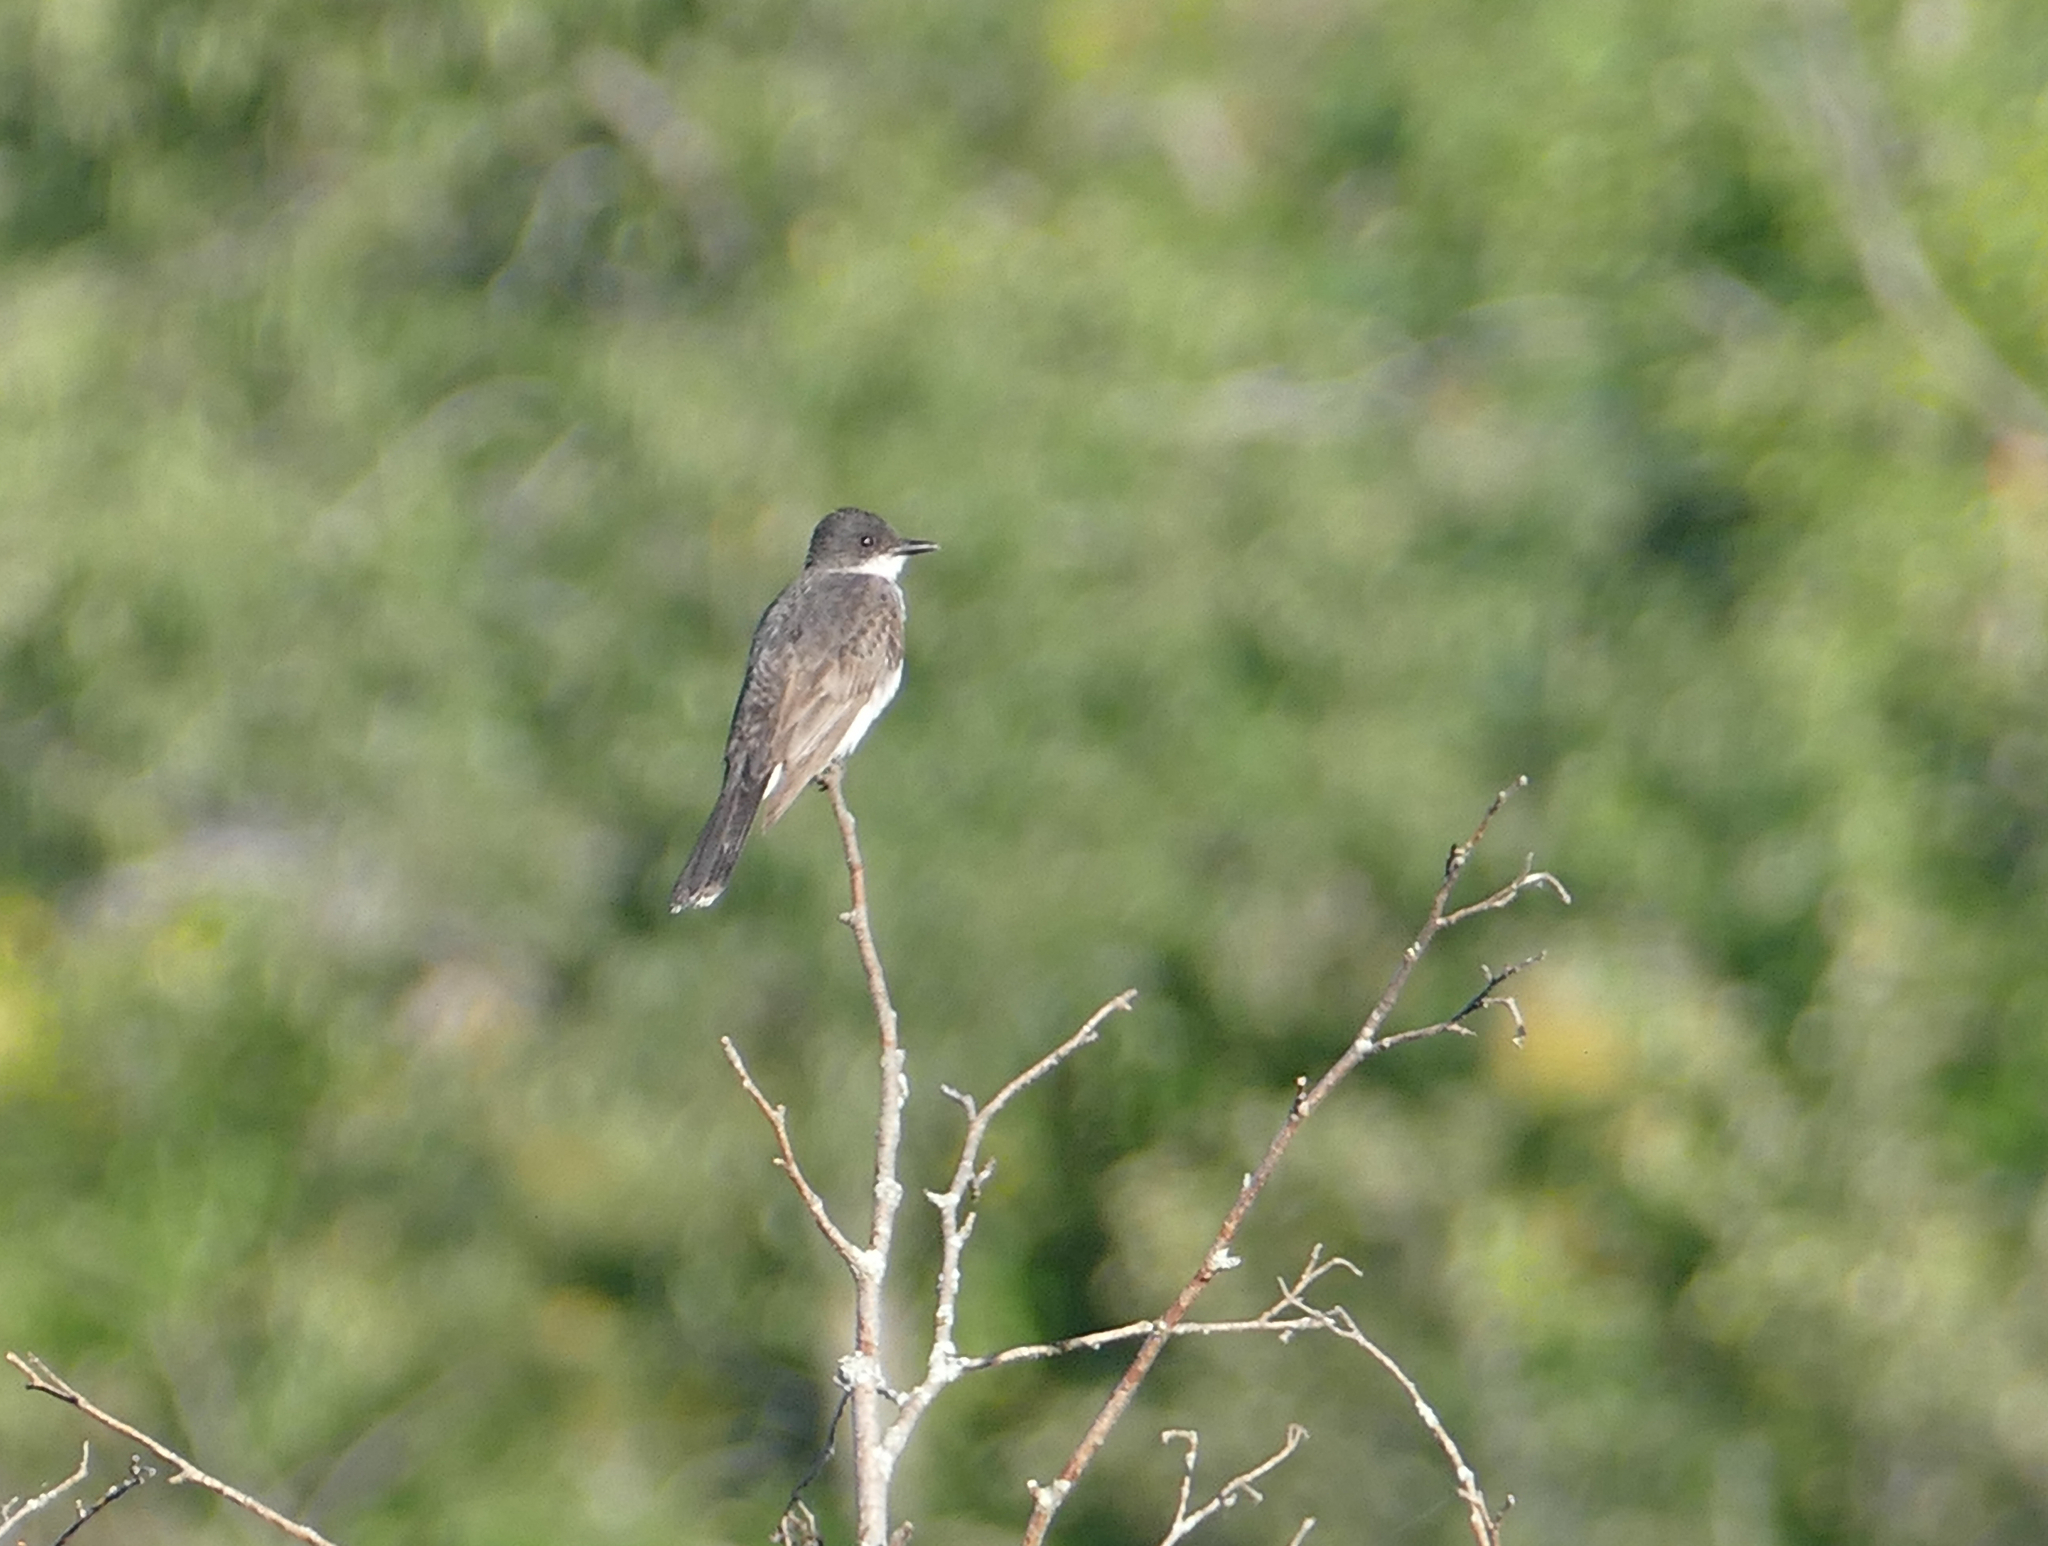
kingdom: Animalia
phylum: Chordata
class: Aves
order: Passeriformes
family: Tyrannidae
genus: Tyrannus
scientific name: Tyrannus tyrannus
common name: Eastern kingbird
